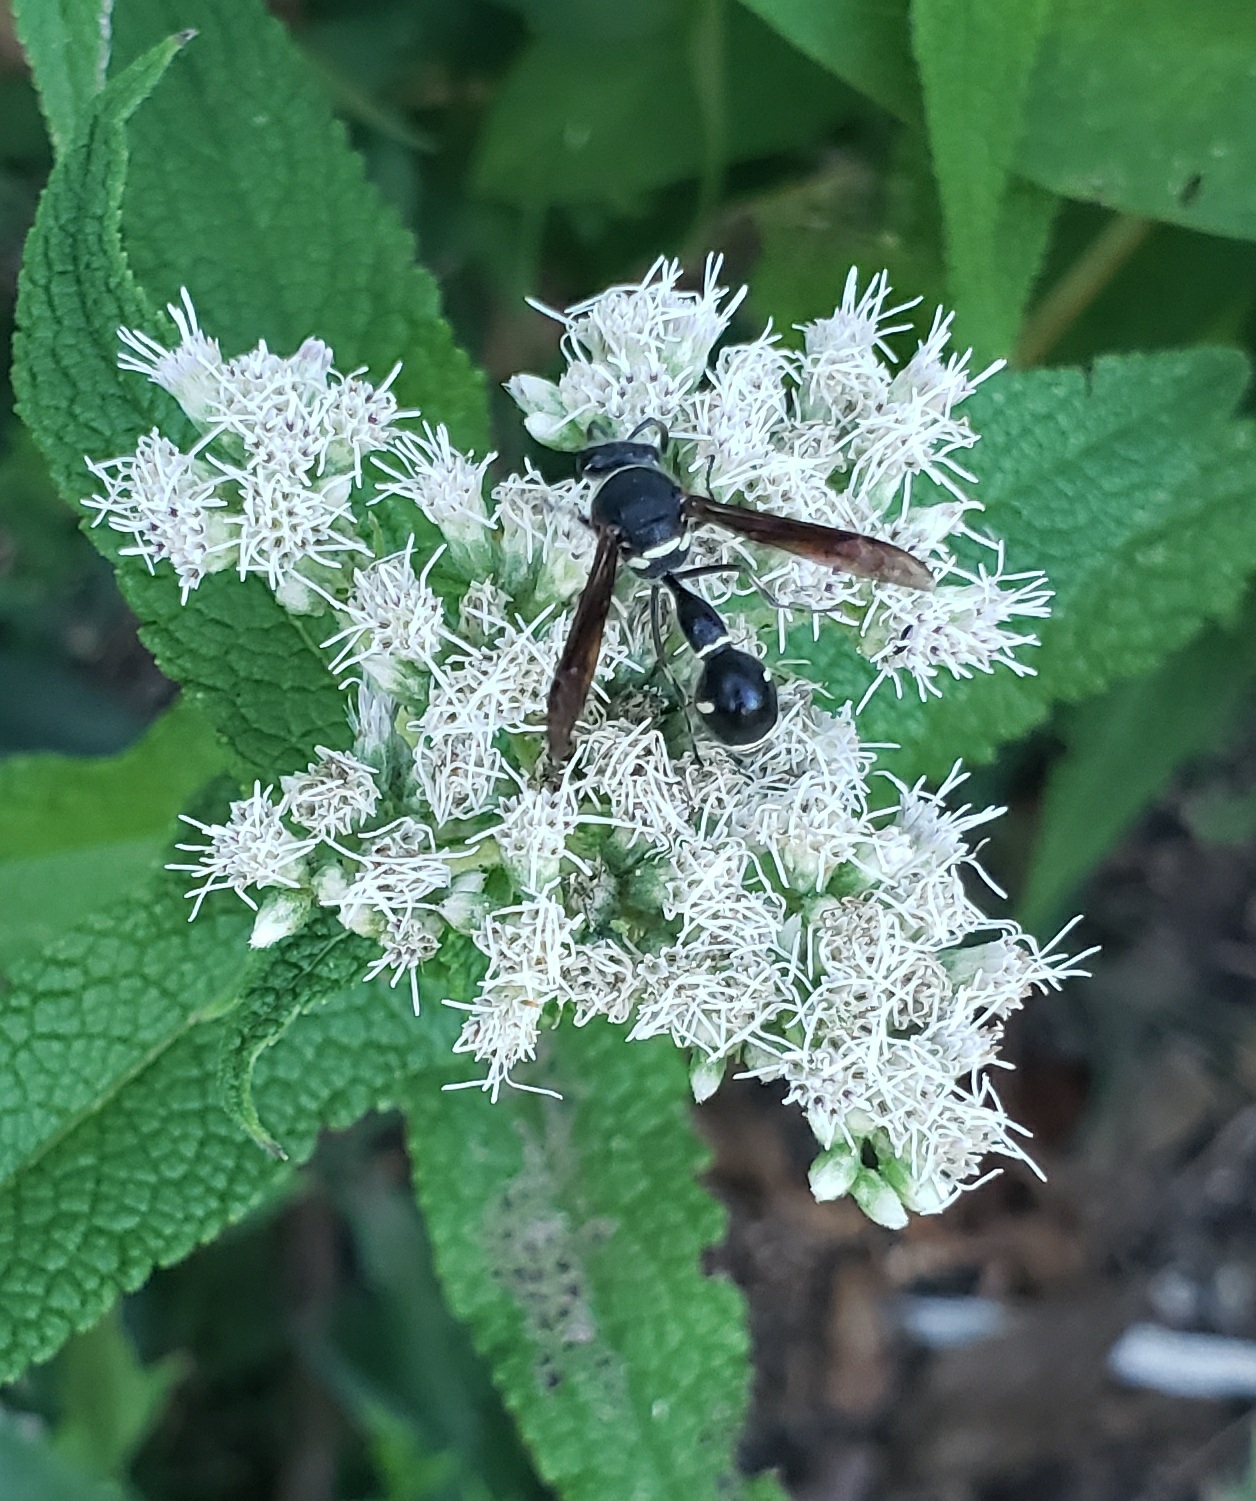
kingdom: Animalia
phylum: Arthropoda
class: Insecta
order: Hymenoptera
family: Vespidae
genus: Eumenes
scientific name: Eumenes fraternus
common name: Fraternal potter wasp
